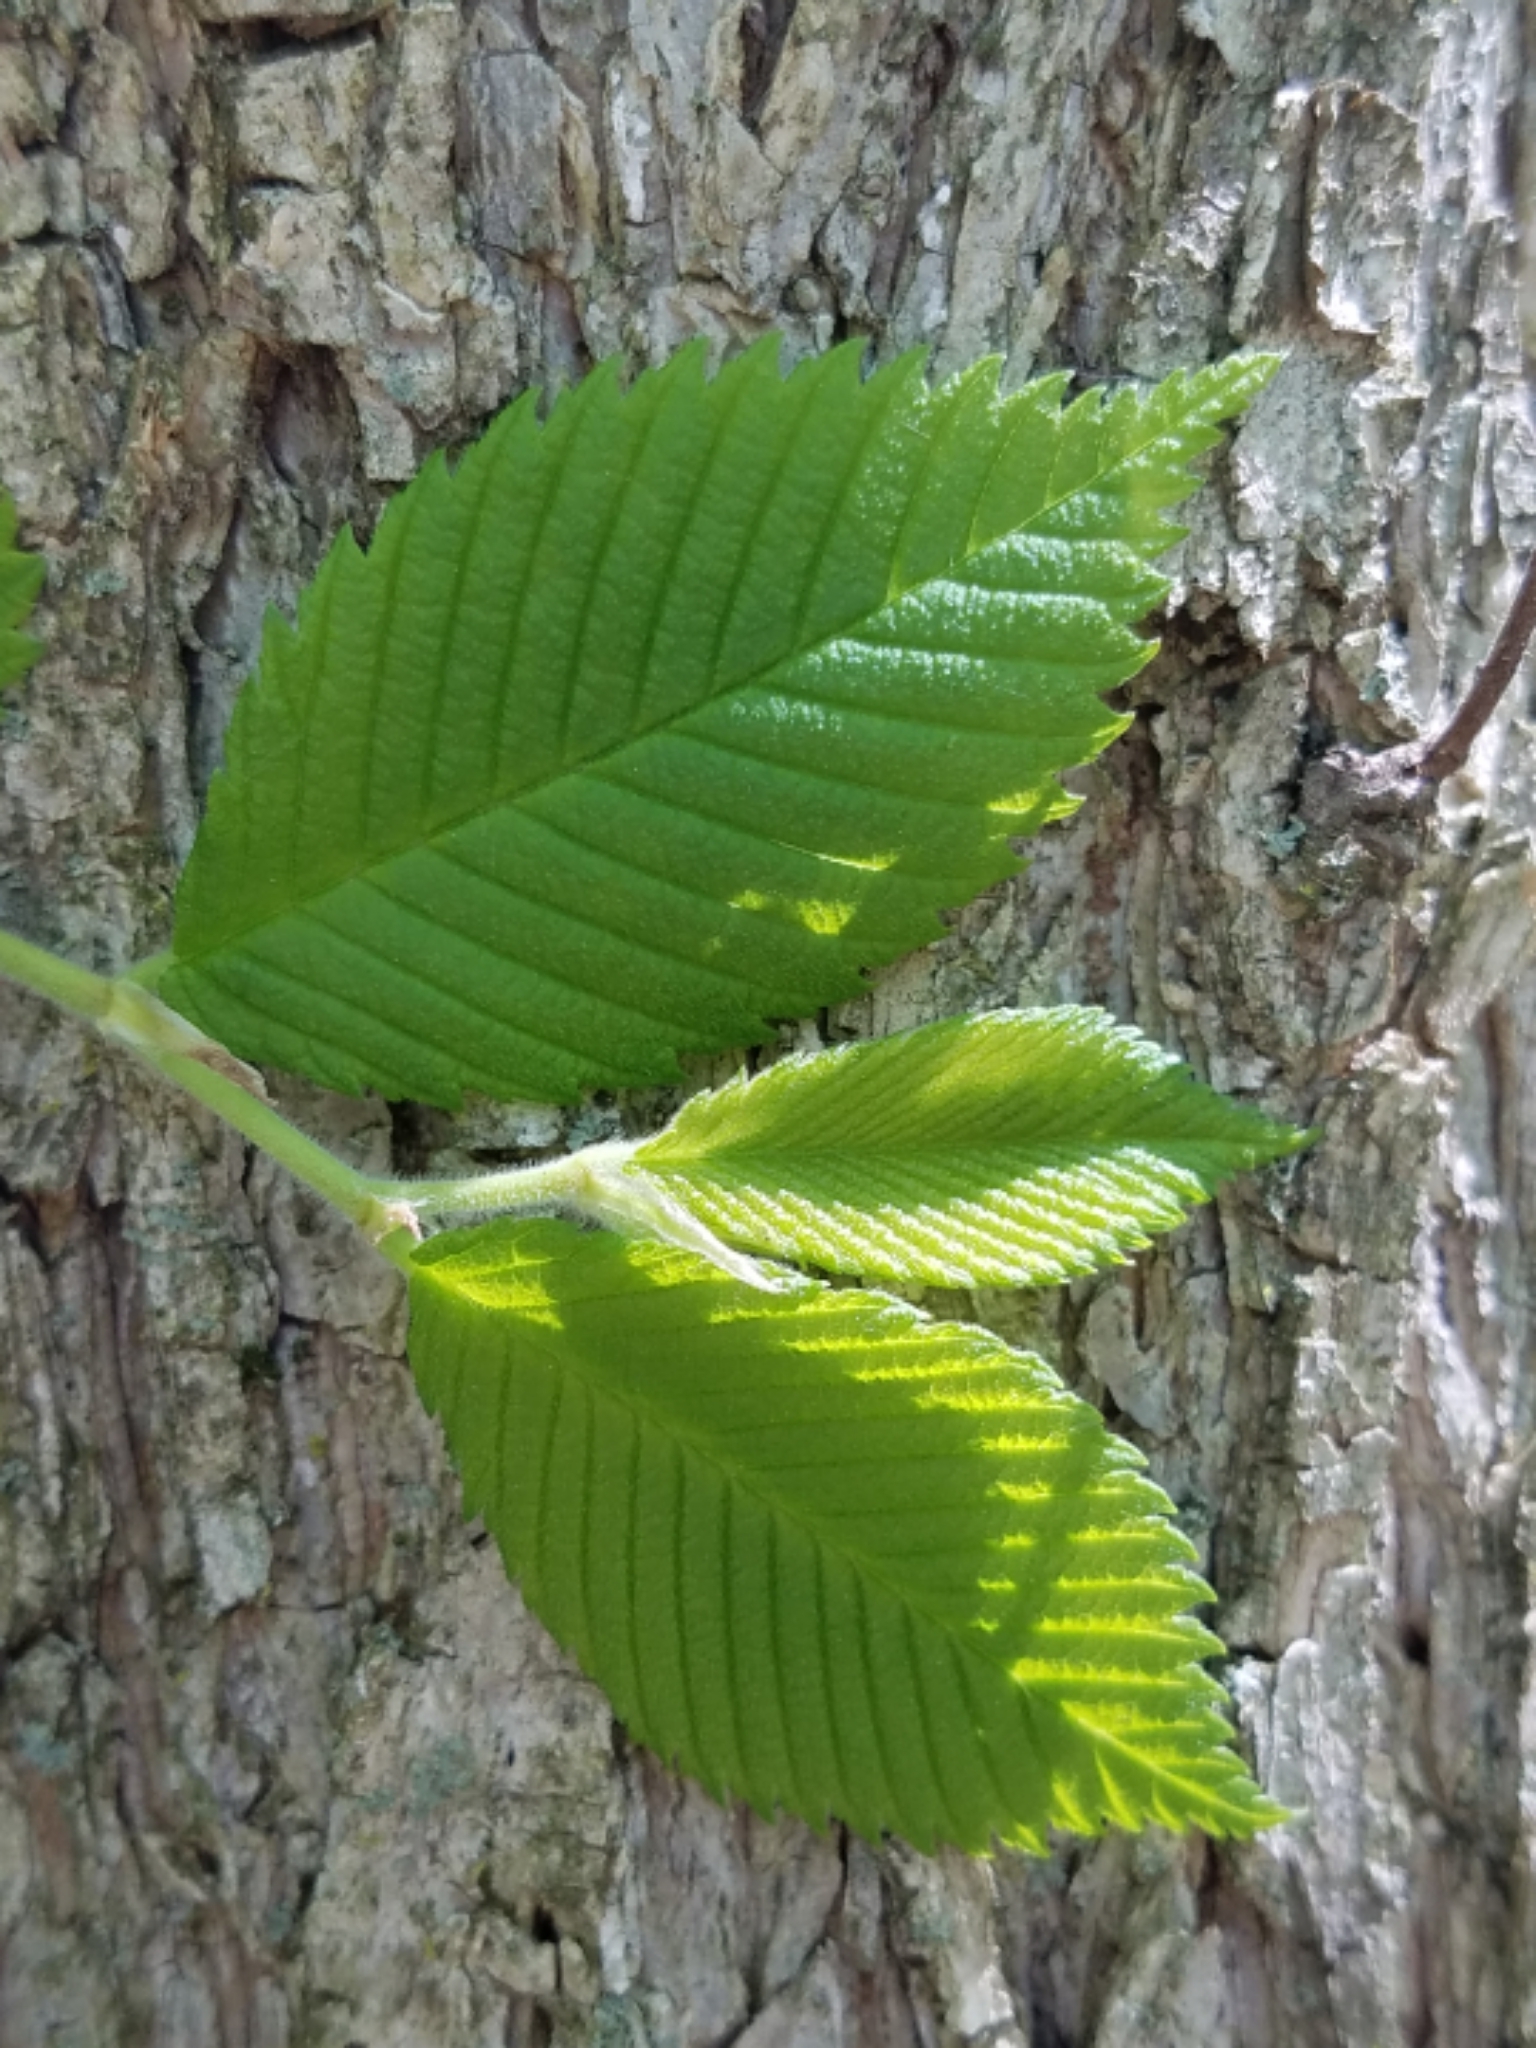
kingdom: Plantae
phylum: Tracheophyta
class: Magnoliopsida
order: Rosales
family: Ulmaceae
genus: Ulmus
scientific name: Ulmus americana
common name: American elm
